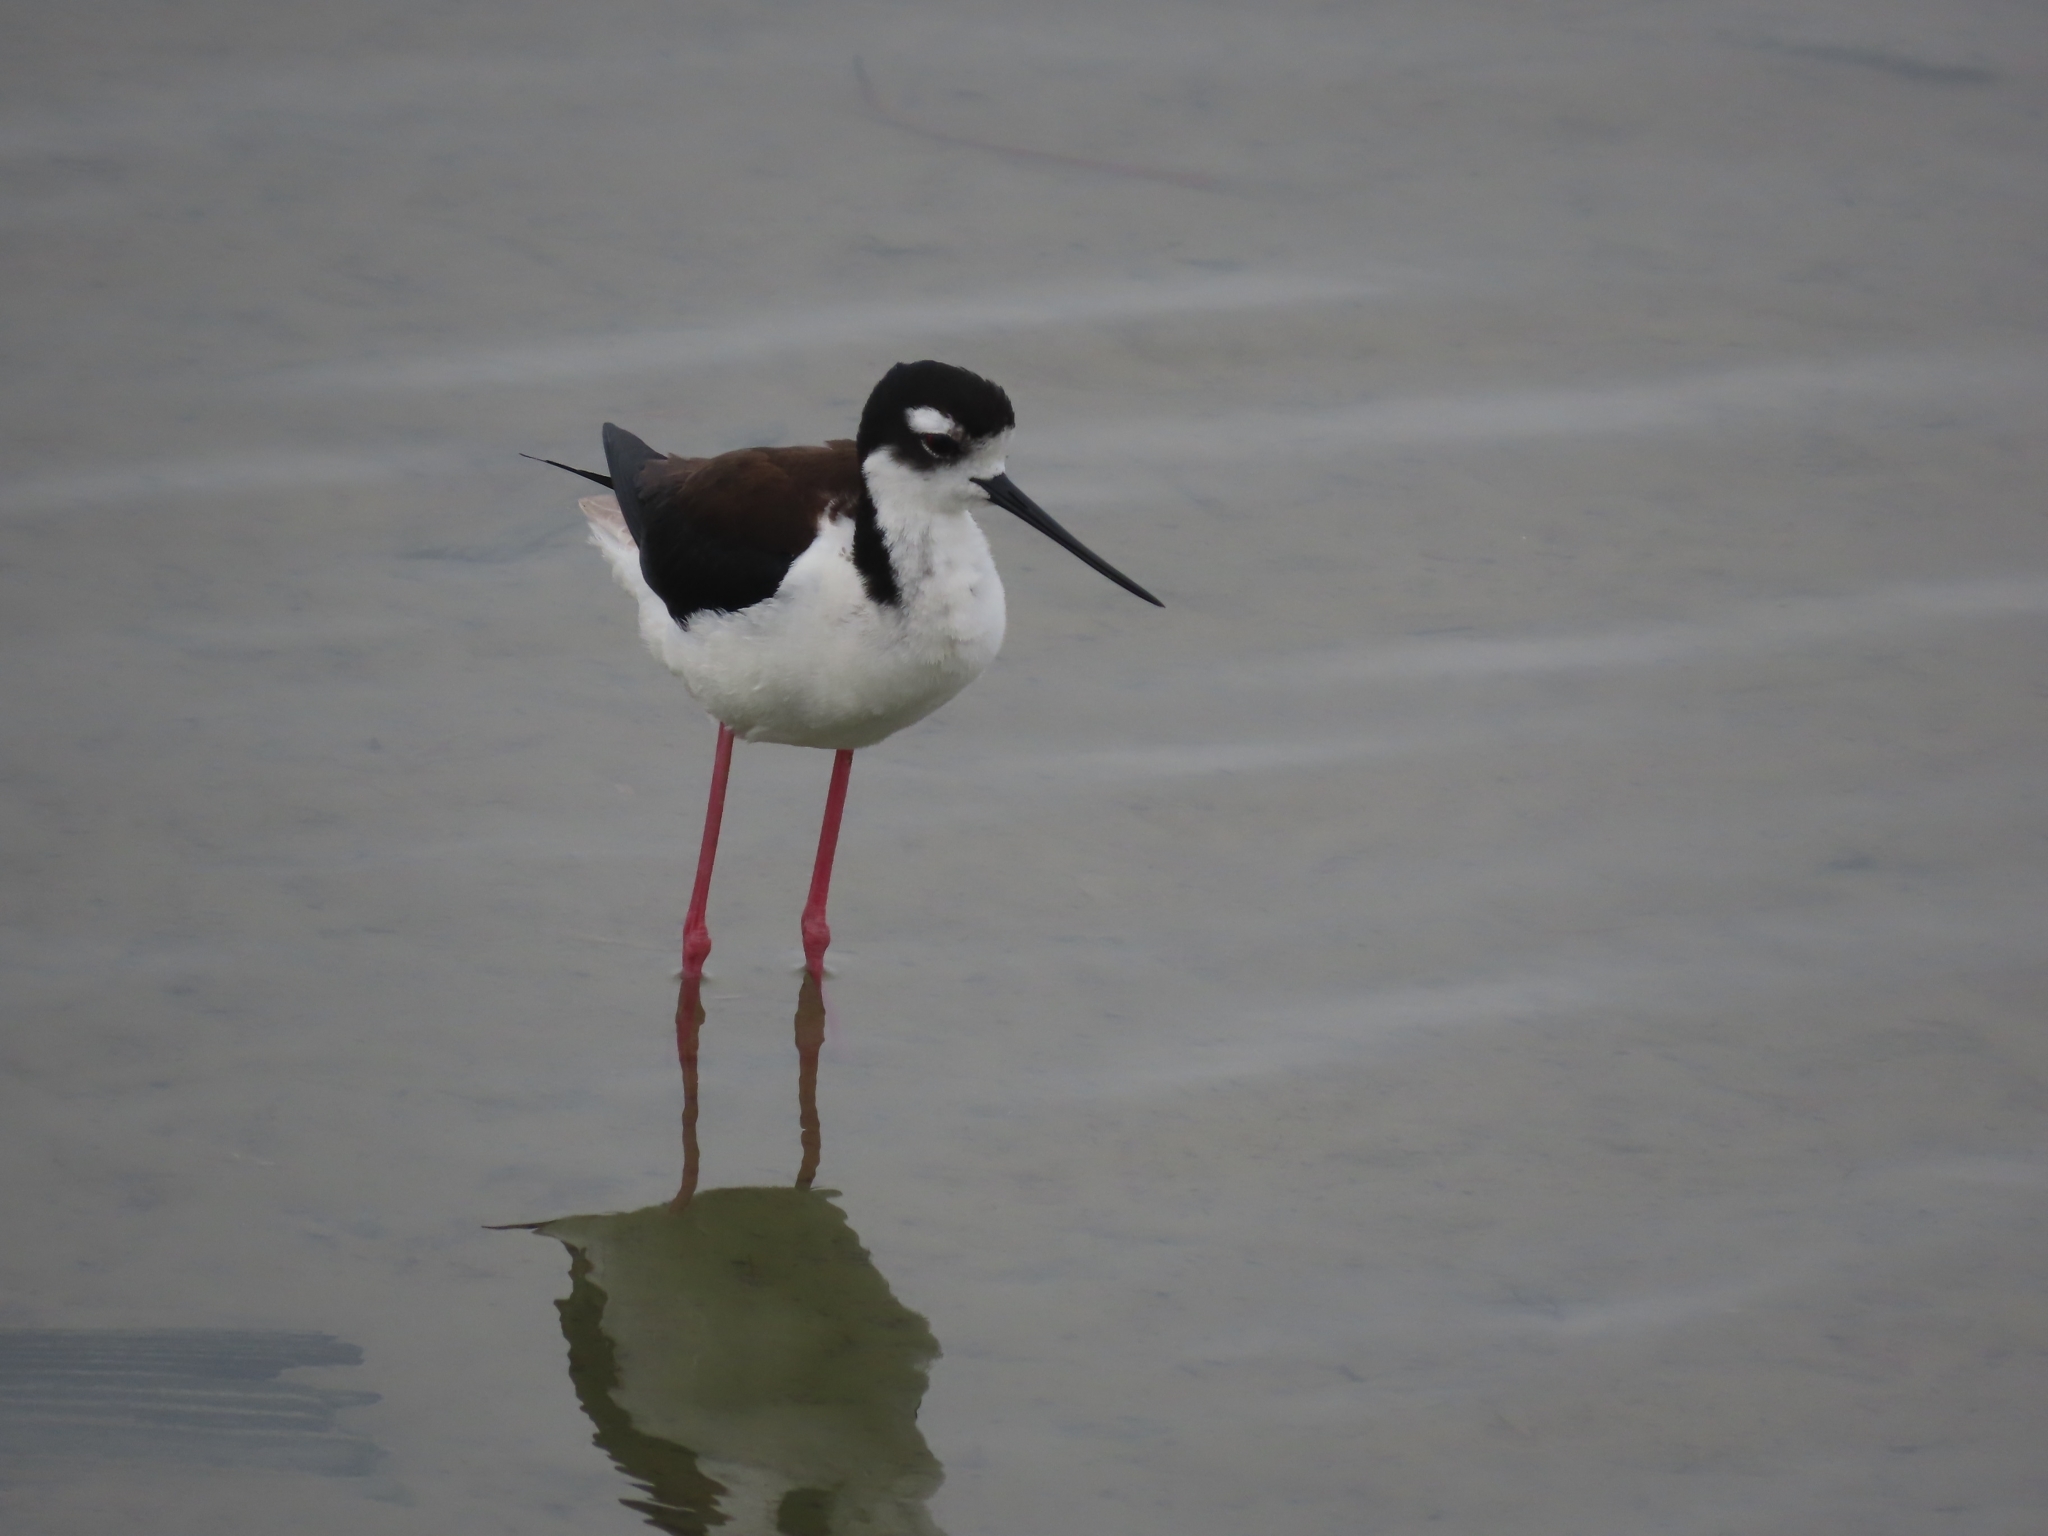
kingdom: Animalia
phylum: Chordata
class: Aves
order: Charadriiformes
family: Recurvirostridae
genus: Himantopus
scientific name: Himantopus mexicanus
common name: Black-necked stilt
